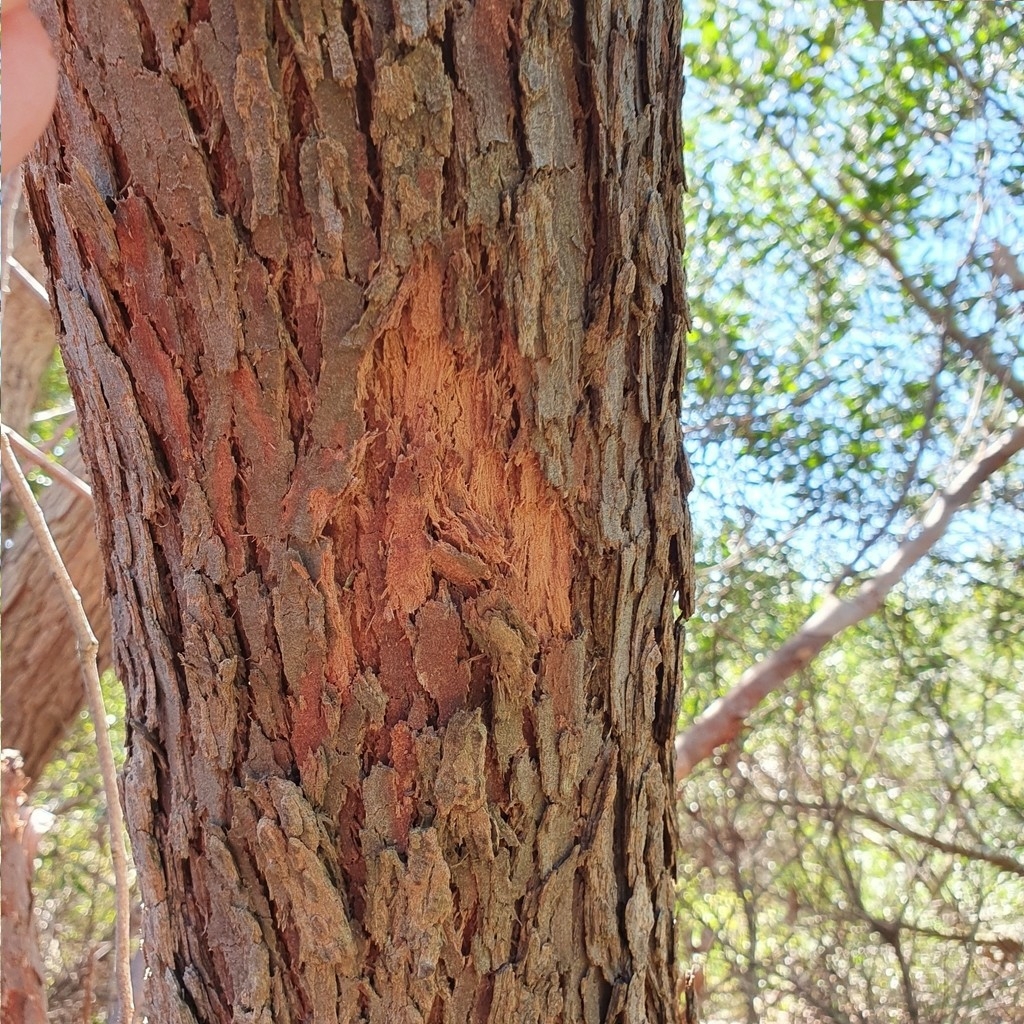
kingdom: Plantae
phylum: Tracheophyta
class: Magnoliopsida
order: Myrtales
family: Myrtaceae
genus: Corymbia
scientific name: Corymbia gummifera
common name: Red bloodwood
